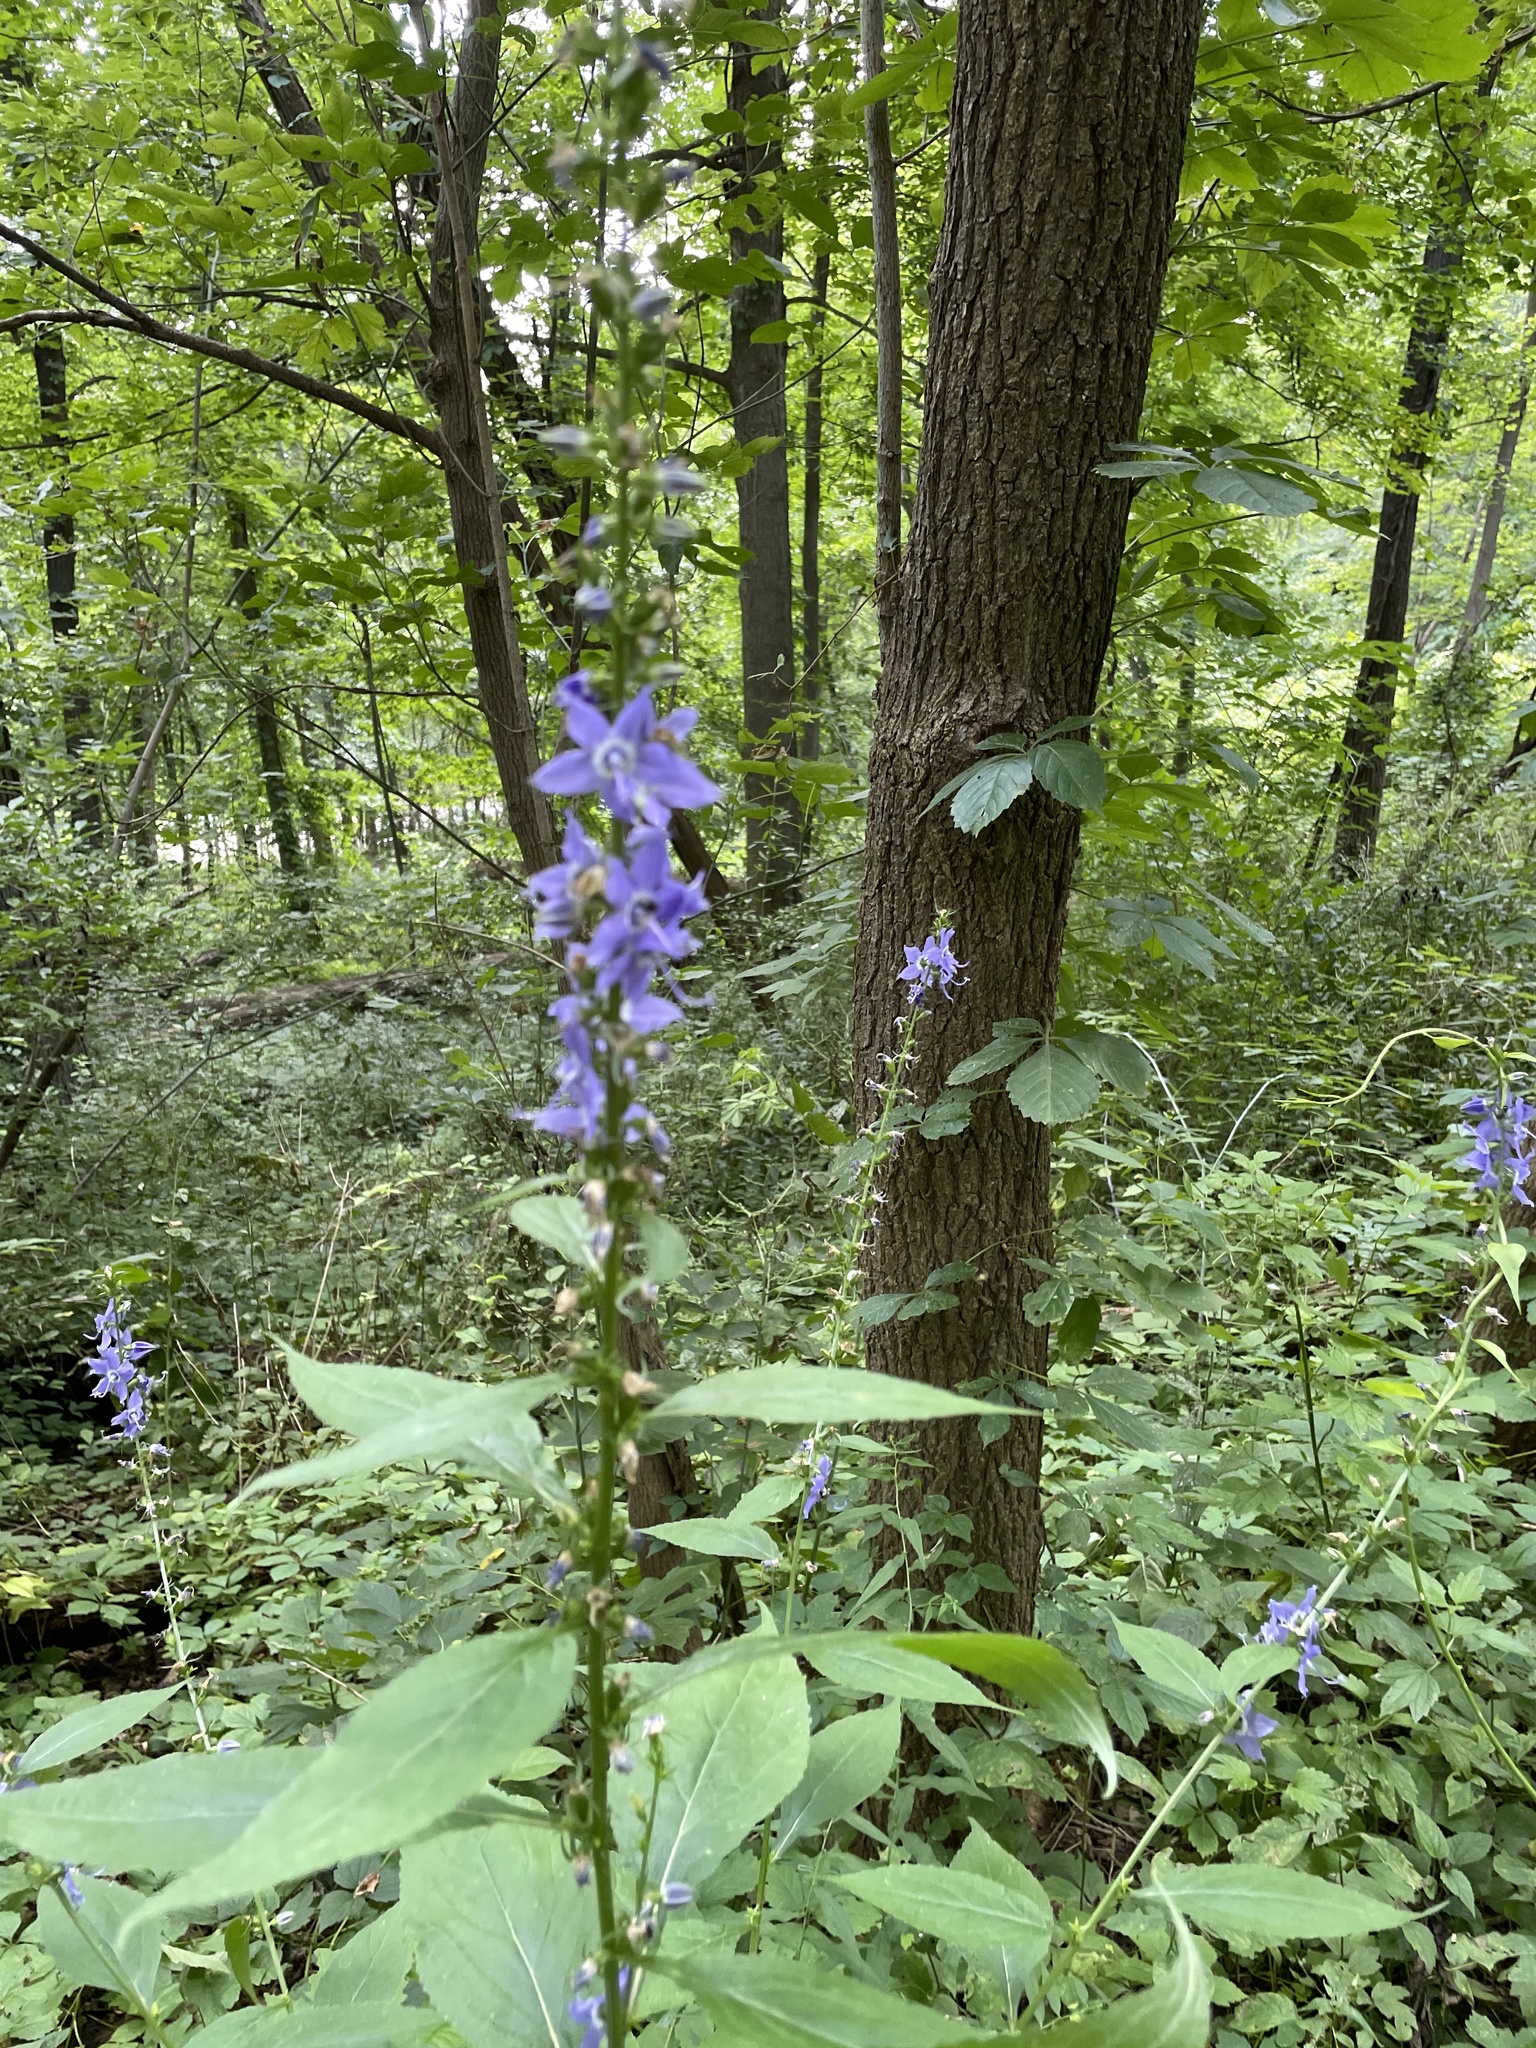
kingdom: Plantae
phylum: Tracheophyta
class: Magnoliopsida
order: Asterales
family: Campanulaceae
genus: Campanulastrum
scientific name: Campanulastrum americanum
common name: American bellflower
